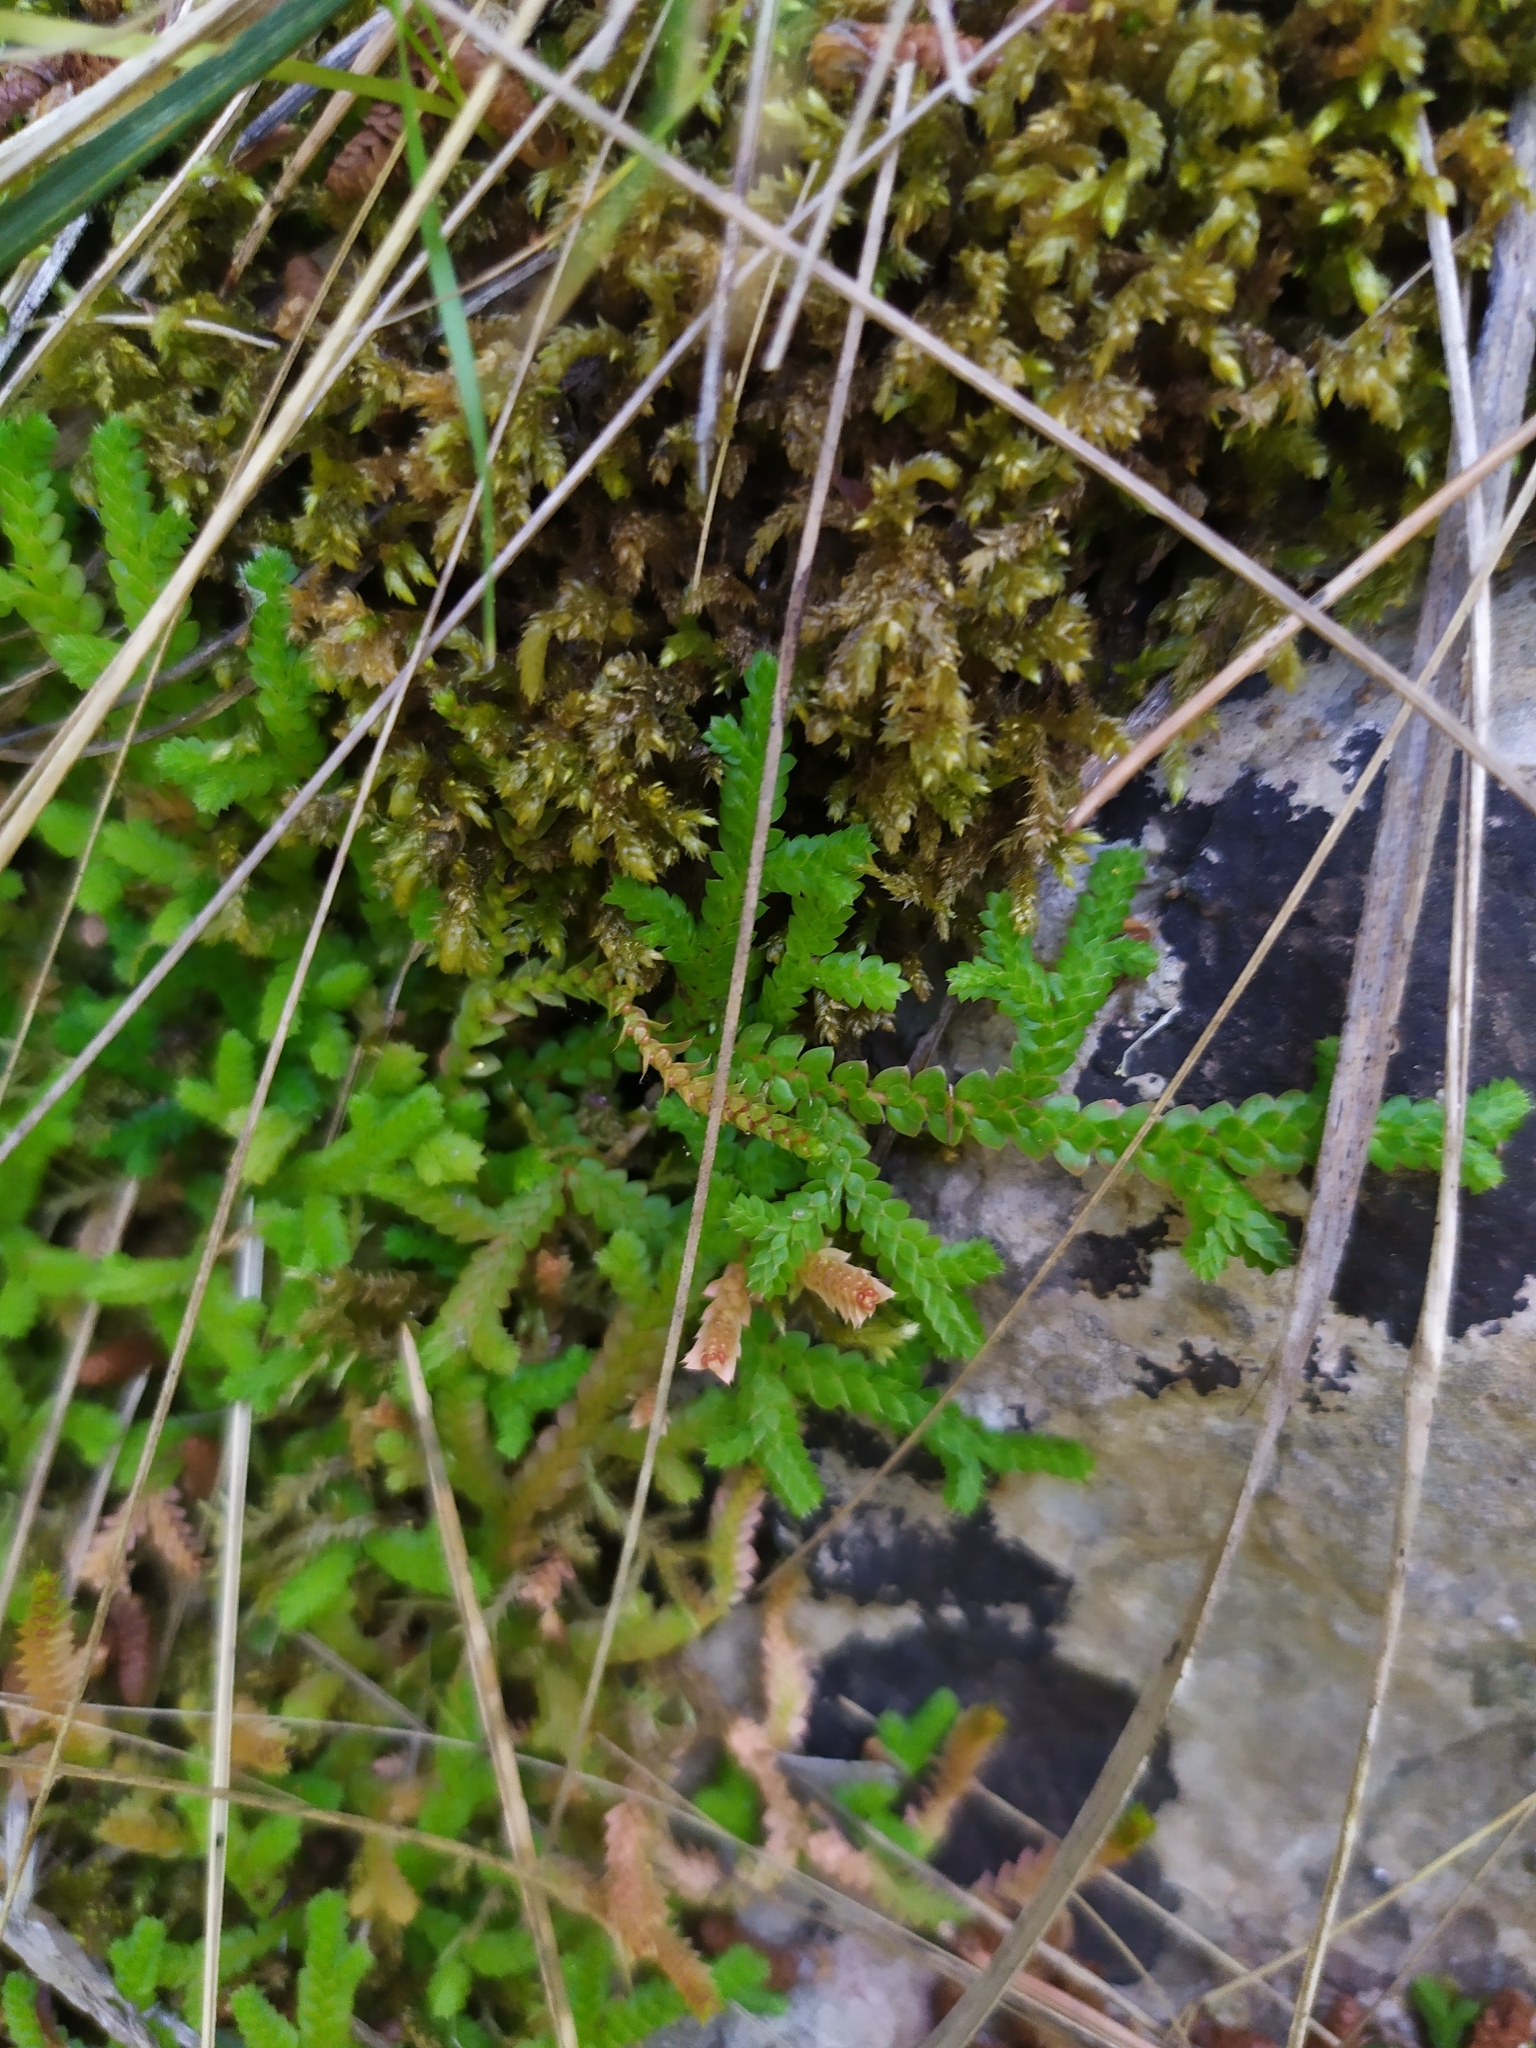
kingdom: Plantae
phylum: Tracheophyta
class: Lycopodiopsida
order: Selaginellales
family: Selaginellaceae
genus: Selaginella
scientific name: Selaginella denticulata
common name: Toothed-leaved clubmoss
